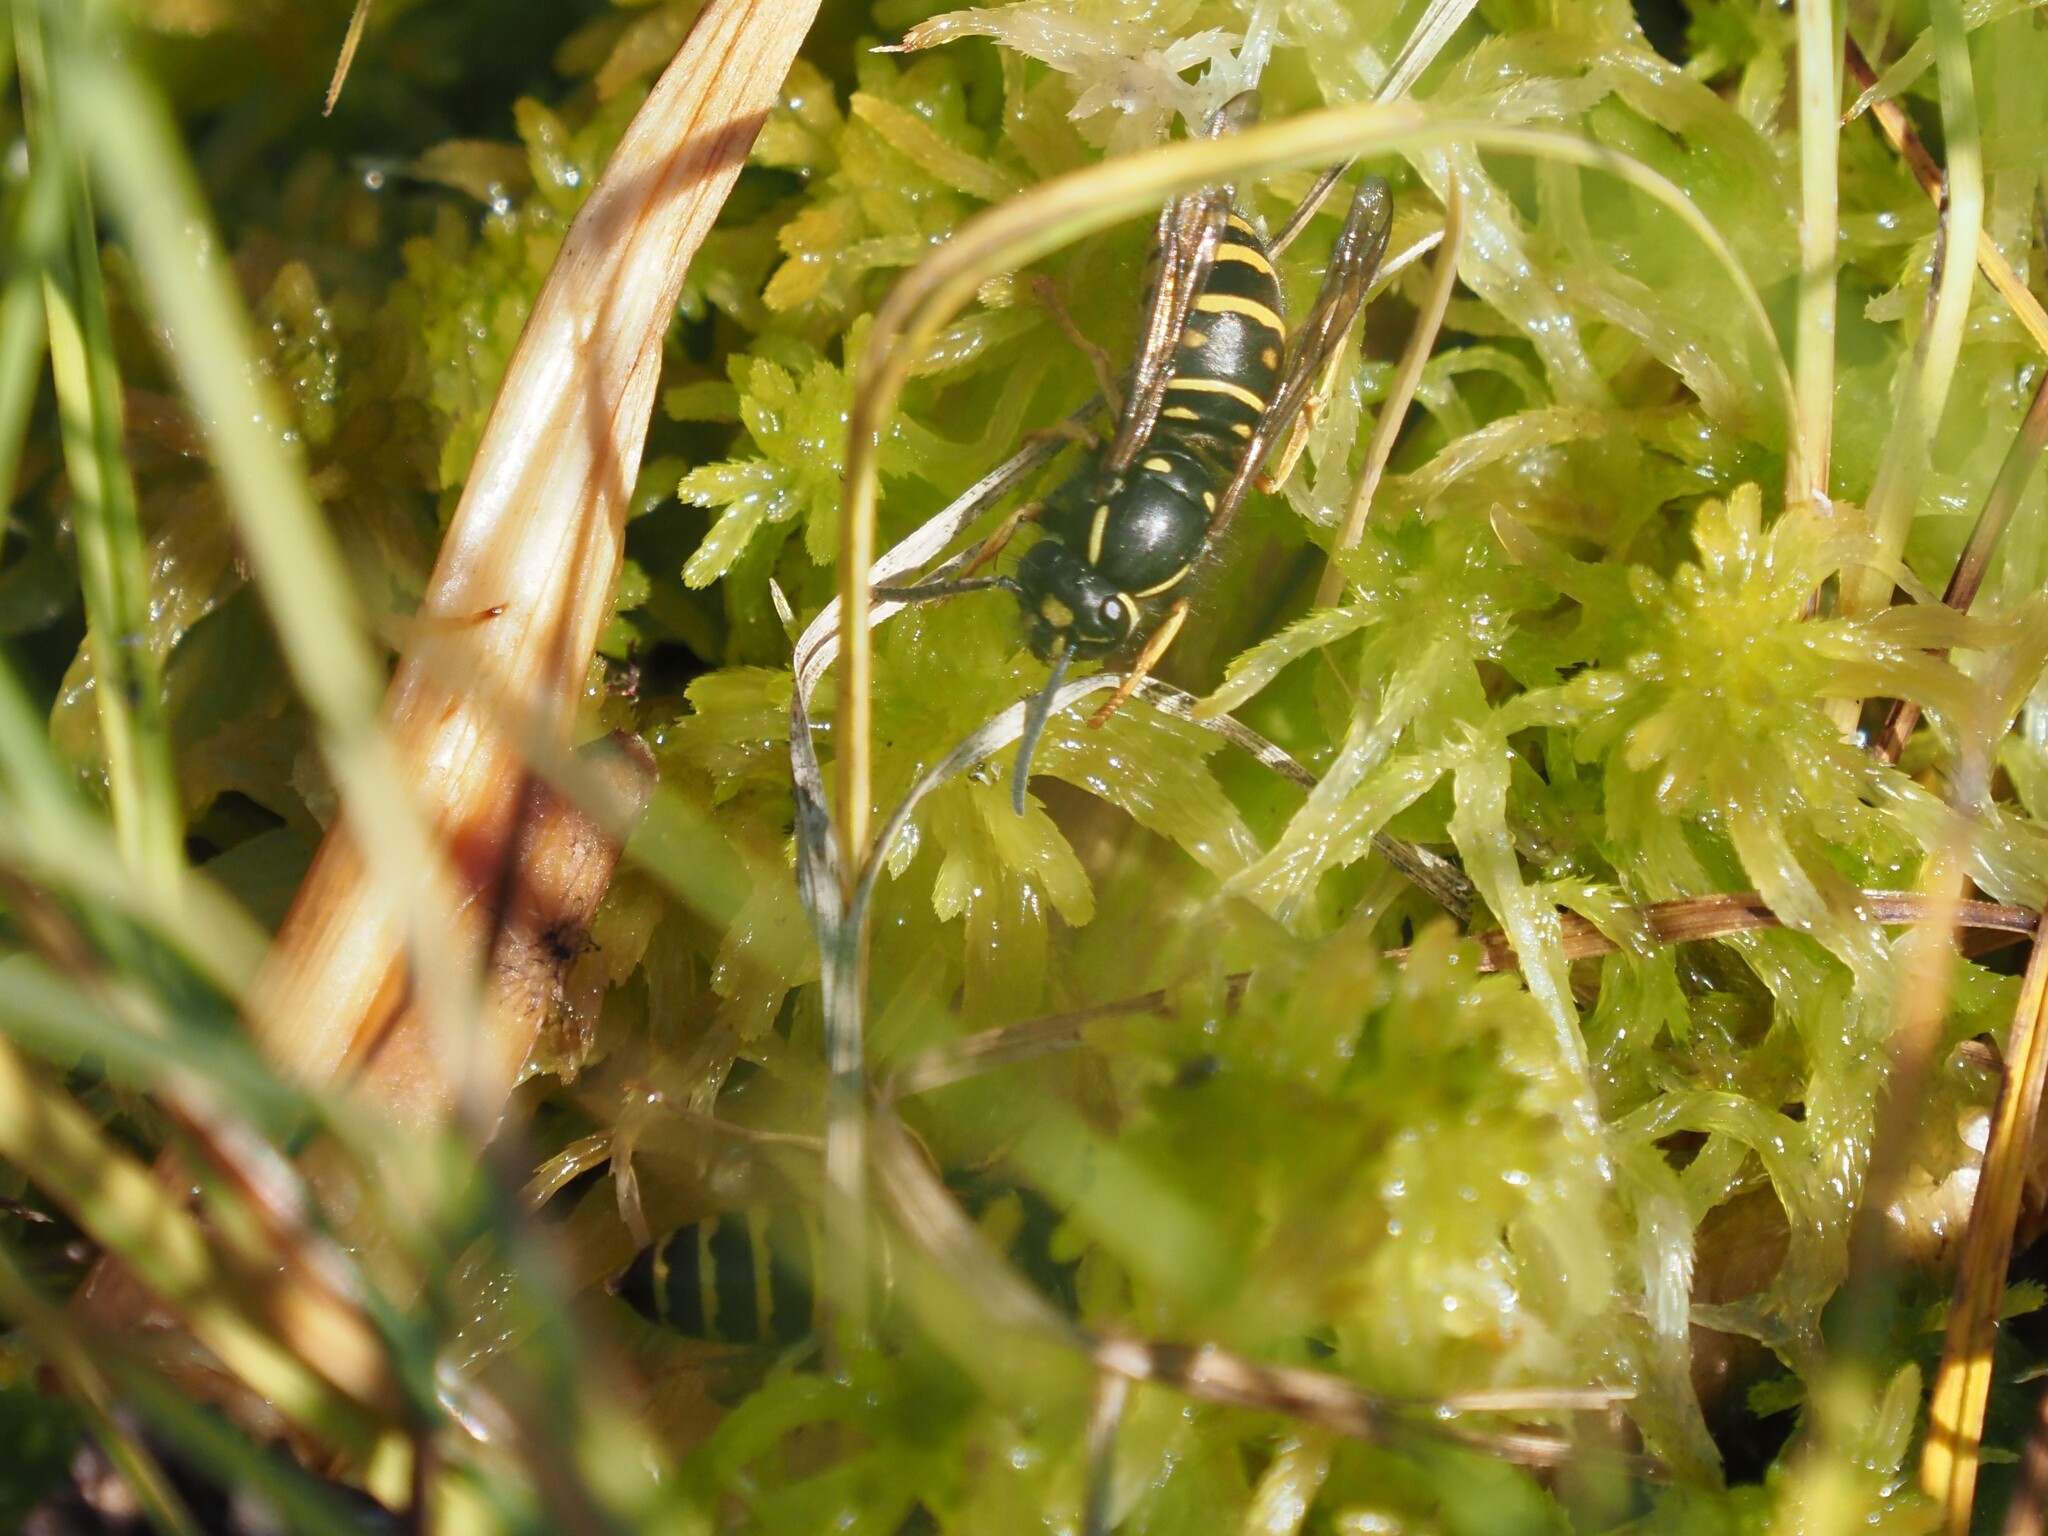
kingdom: Animalia
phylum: Arthropoda
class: Insecta
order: Hymenoptera
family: Vespidae
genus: Vespula
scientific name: Vespula acadica
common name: Forest yellowjacket
